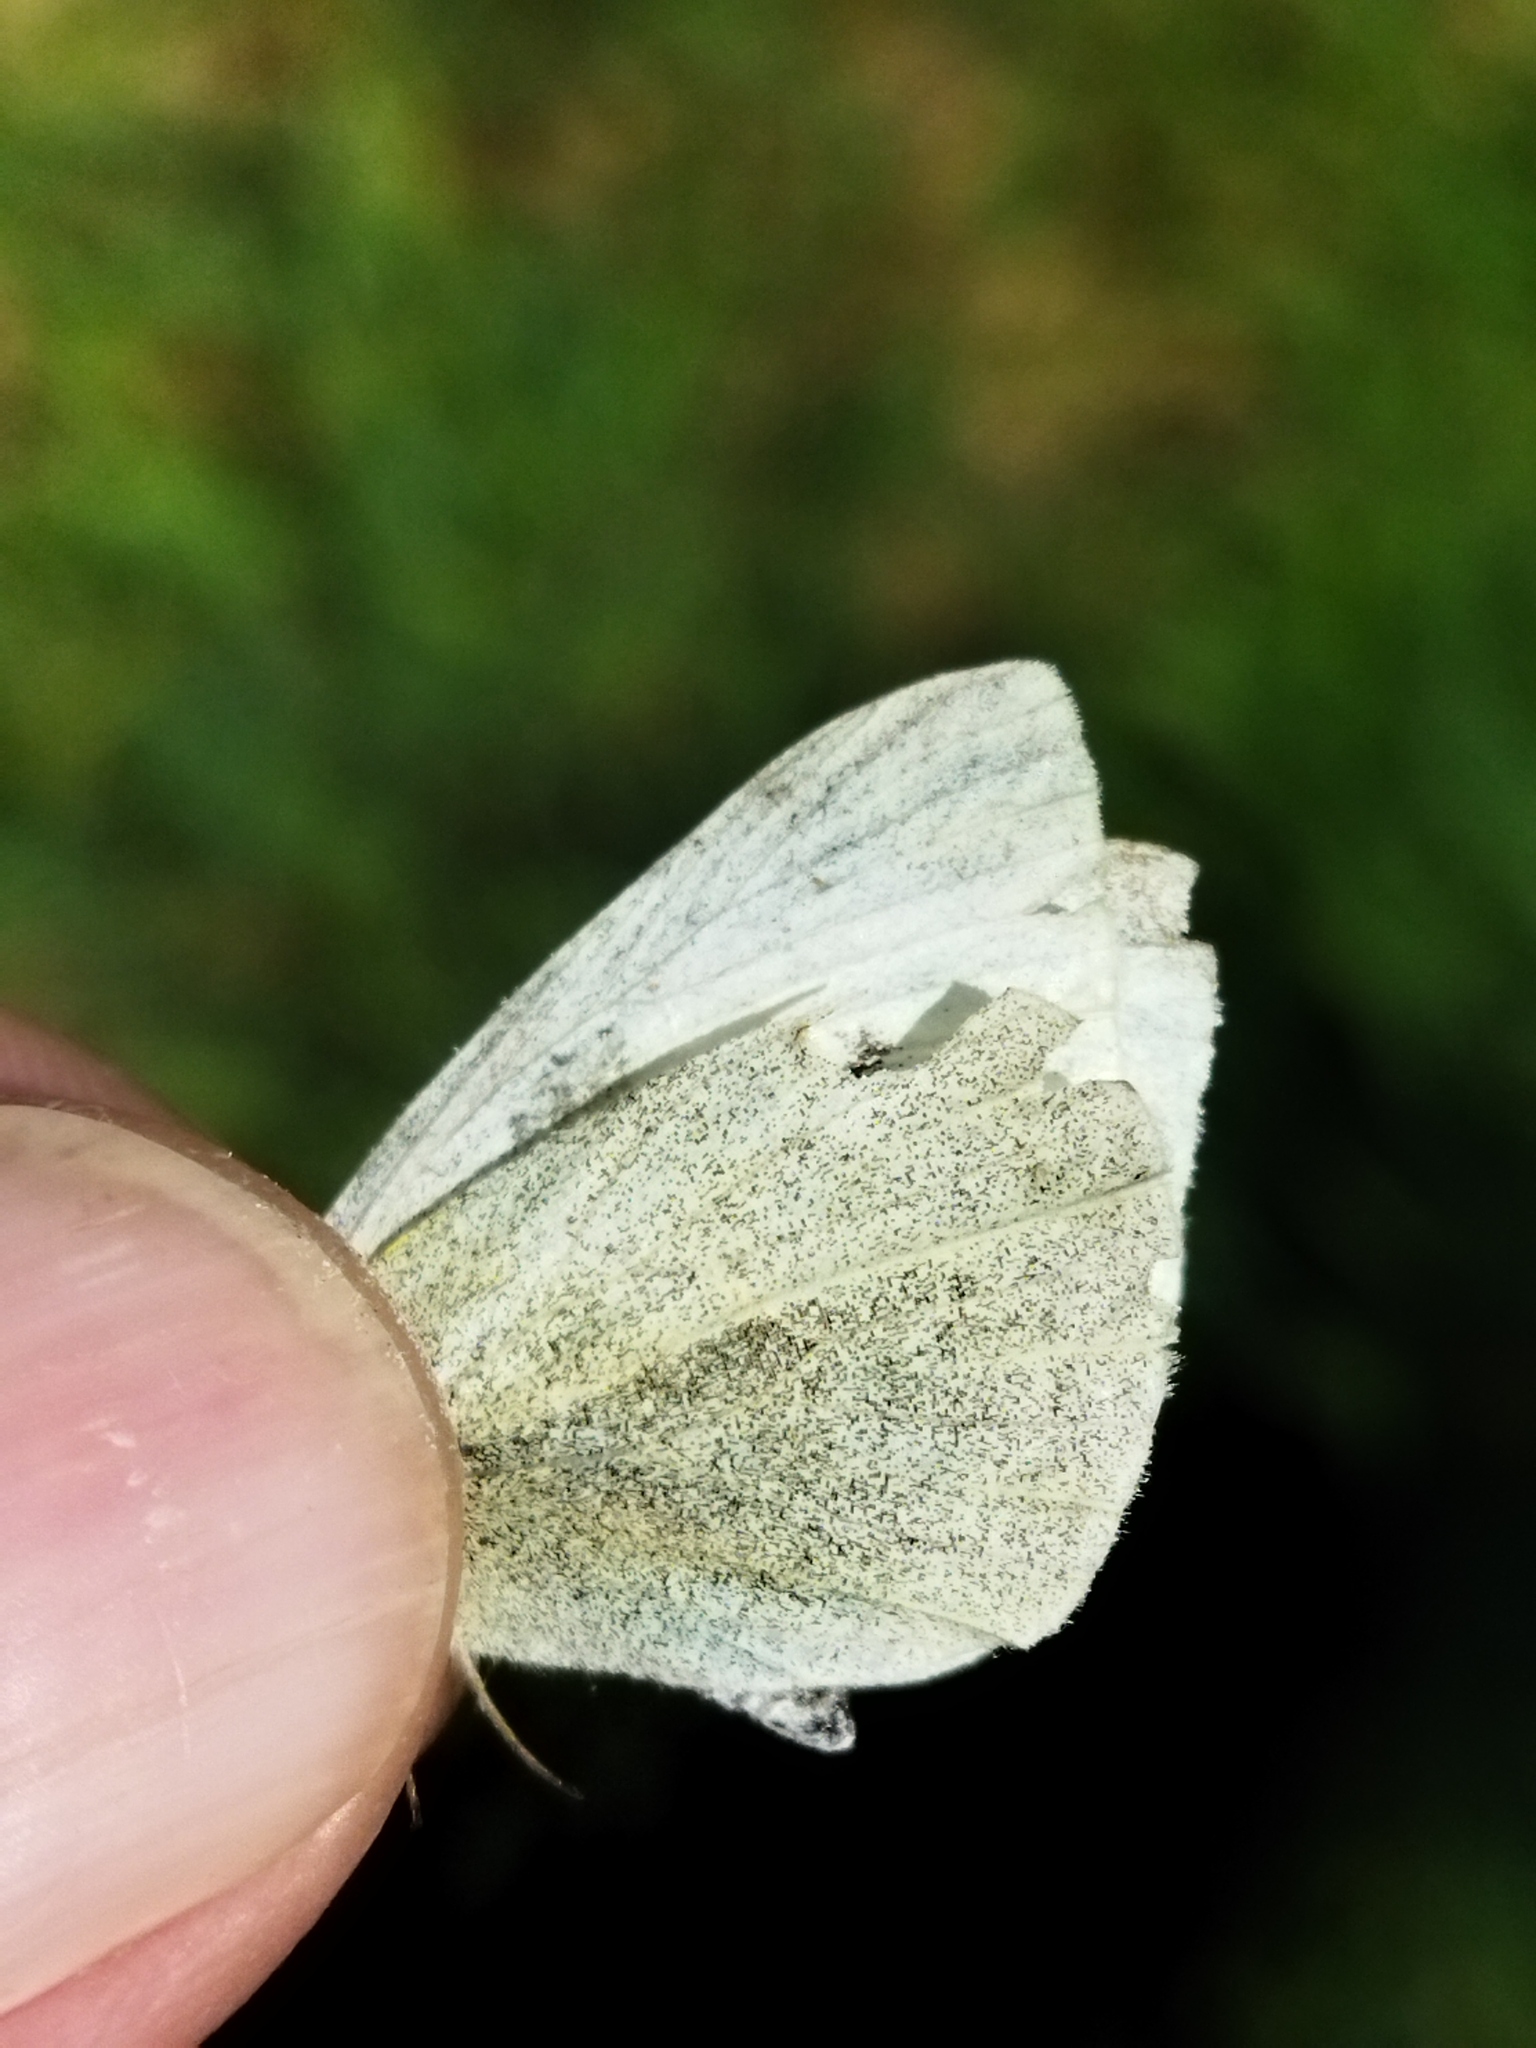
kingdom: Animalia
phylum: Arthropoda
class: Insecta
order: Lepidoptera
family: Pieridae
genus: Pieris
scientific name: Pieris rapae
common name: Small white
